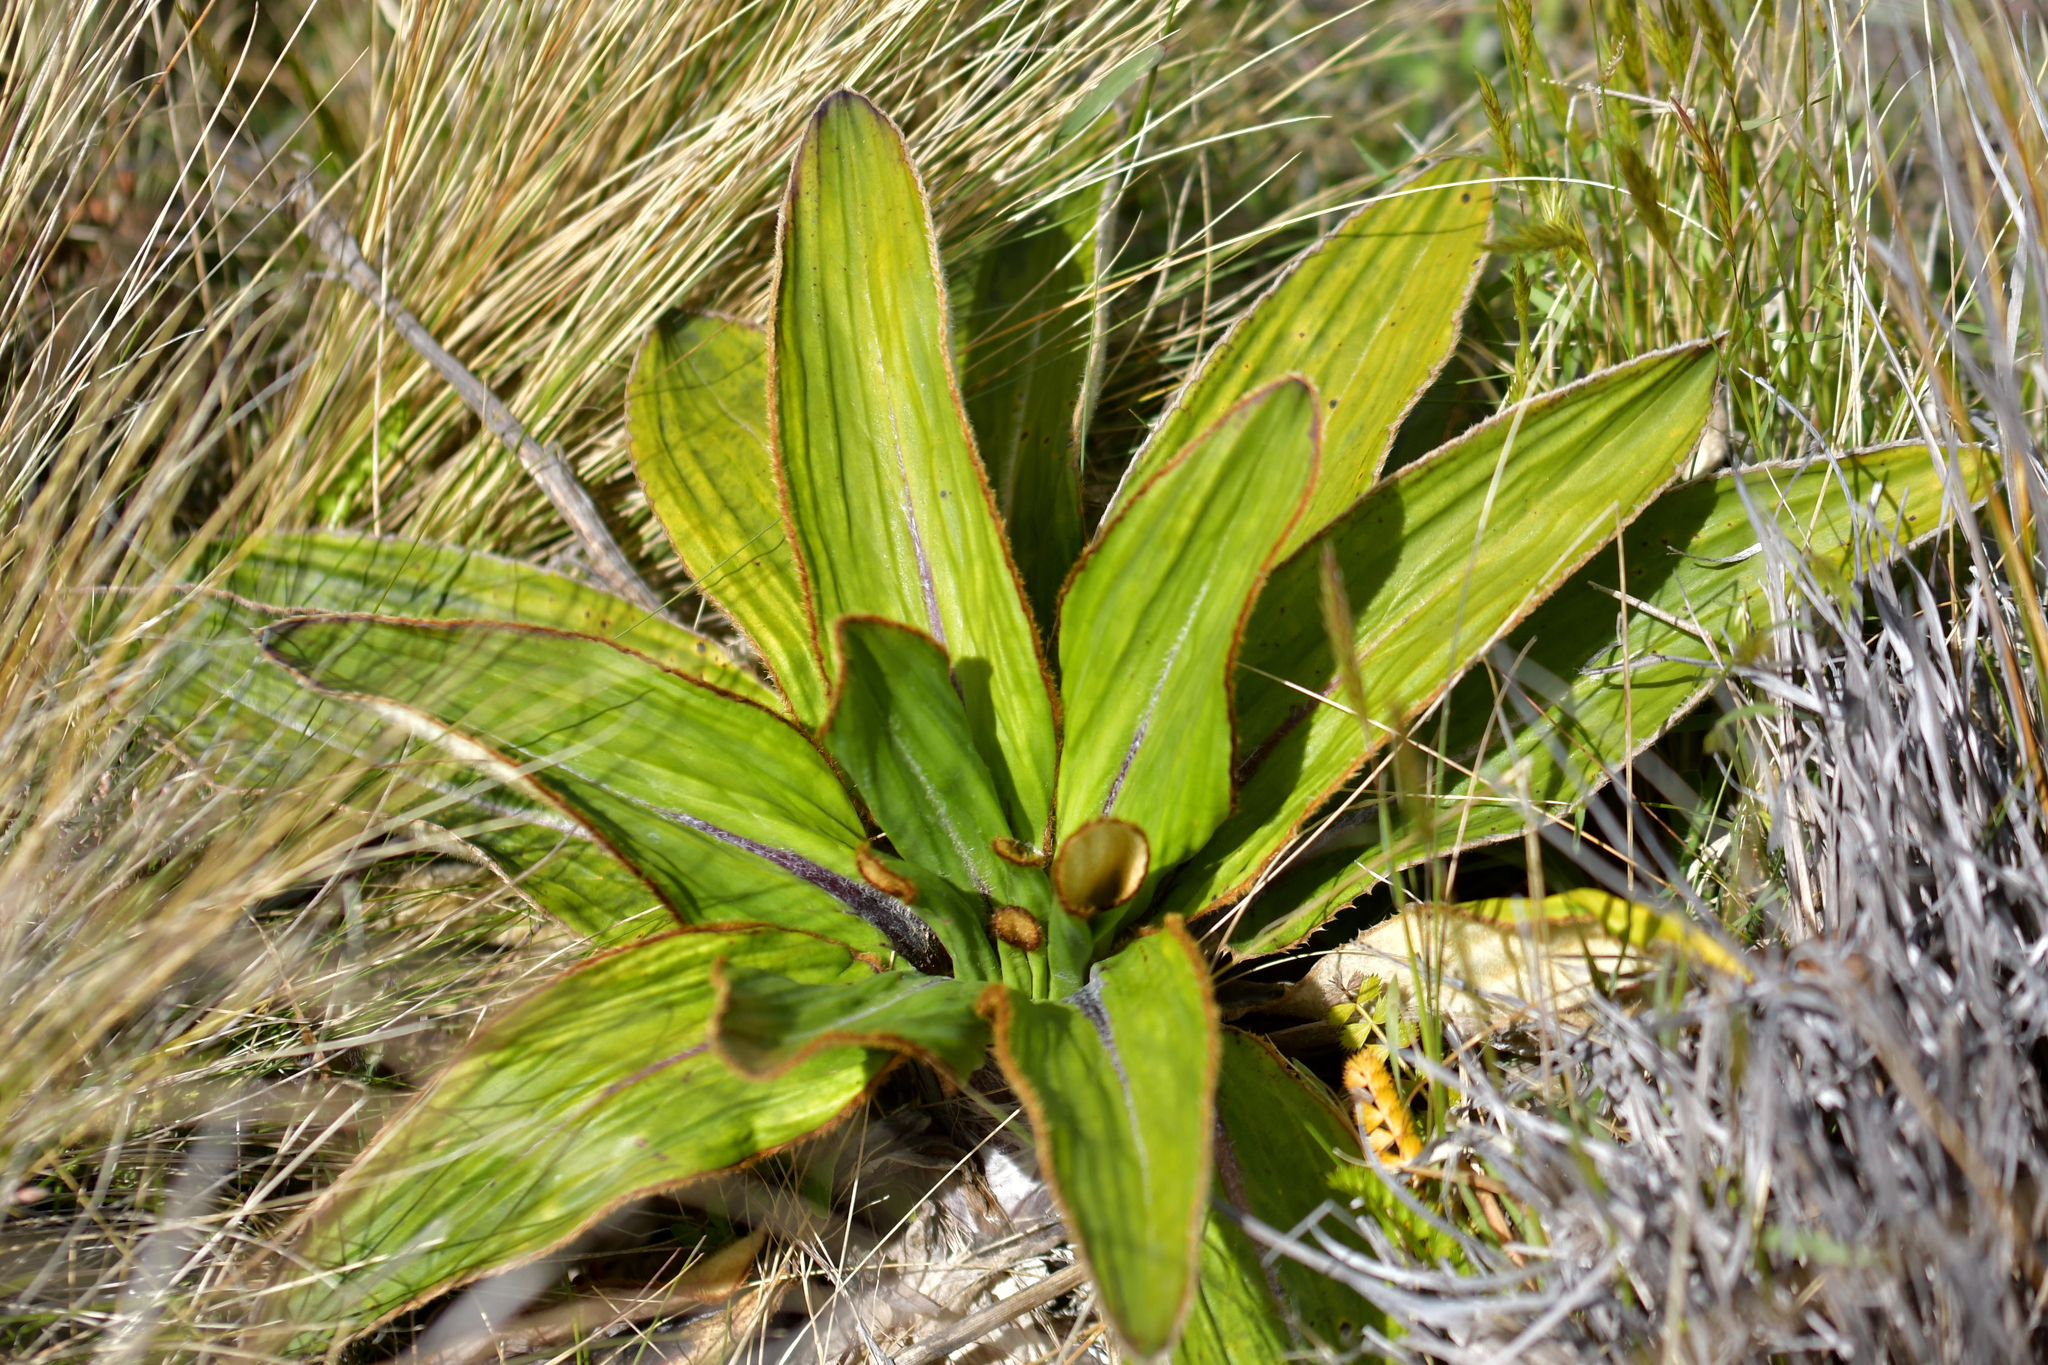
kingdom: Plantae
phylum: Tracheophyta
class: Magnoliopsida
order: Asterales
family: Asteraceae
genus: Celmisia
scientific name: Celmisia traversii
